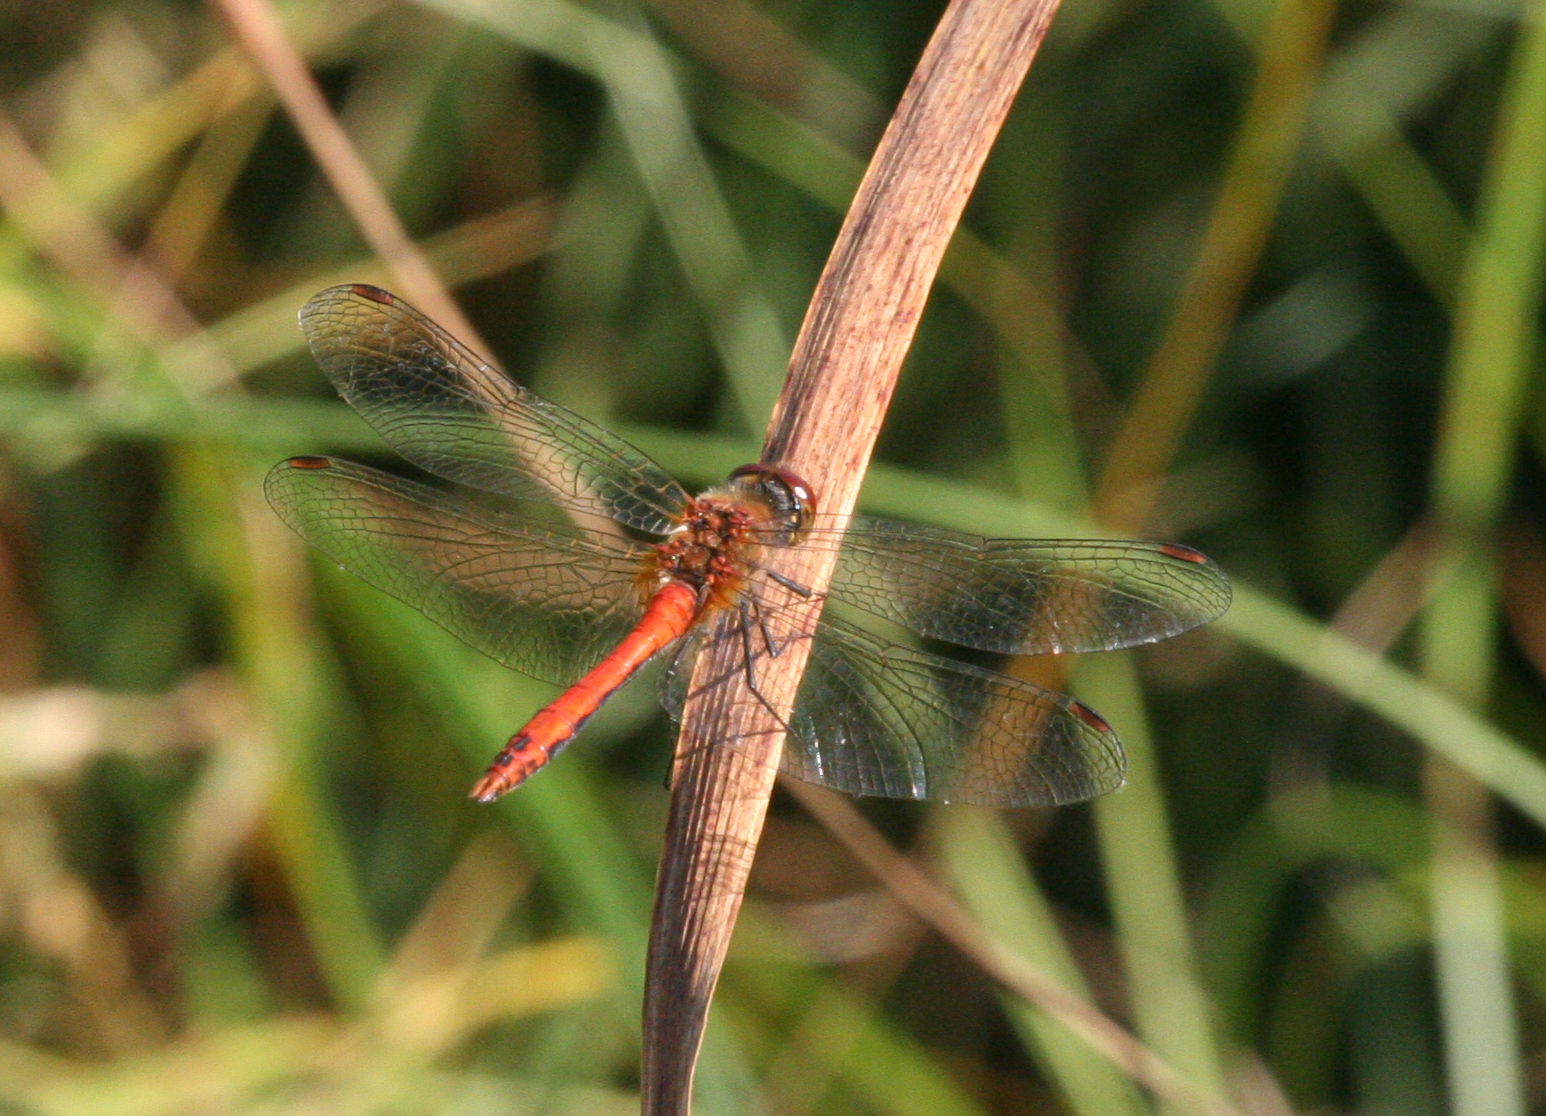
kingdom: Animalia
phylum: Arthropoda
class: Insecta
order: Odonata
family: Libellulidae
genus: Sympetrum
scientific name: Sympetrum sanguineum
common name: Ruddy darter
